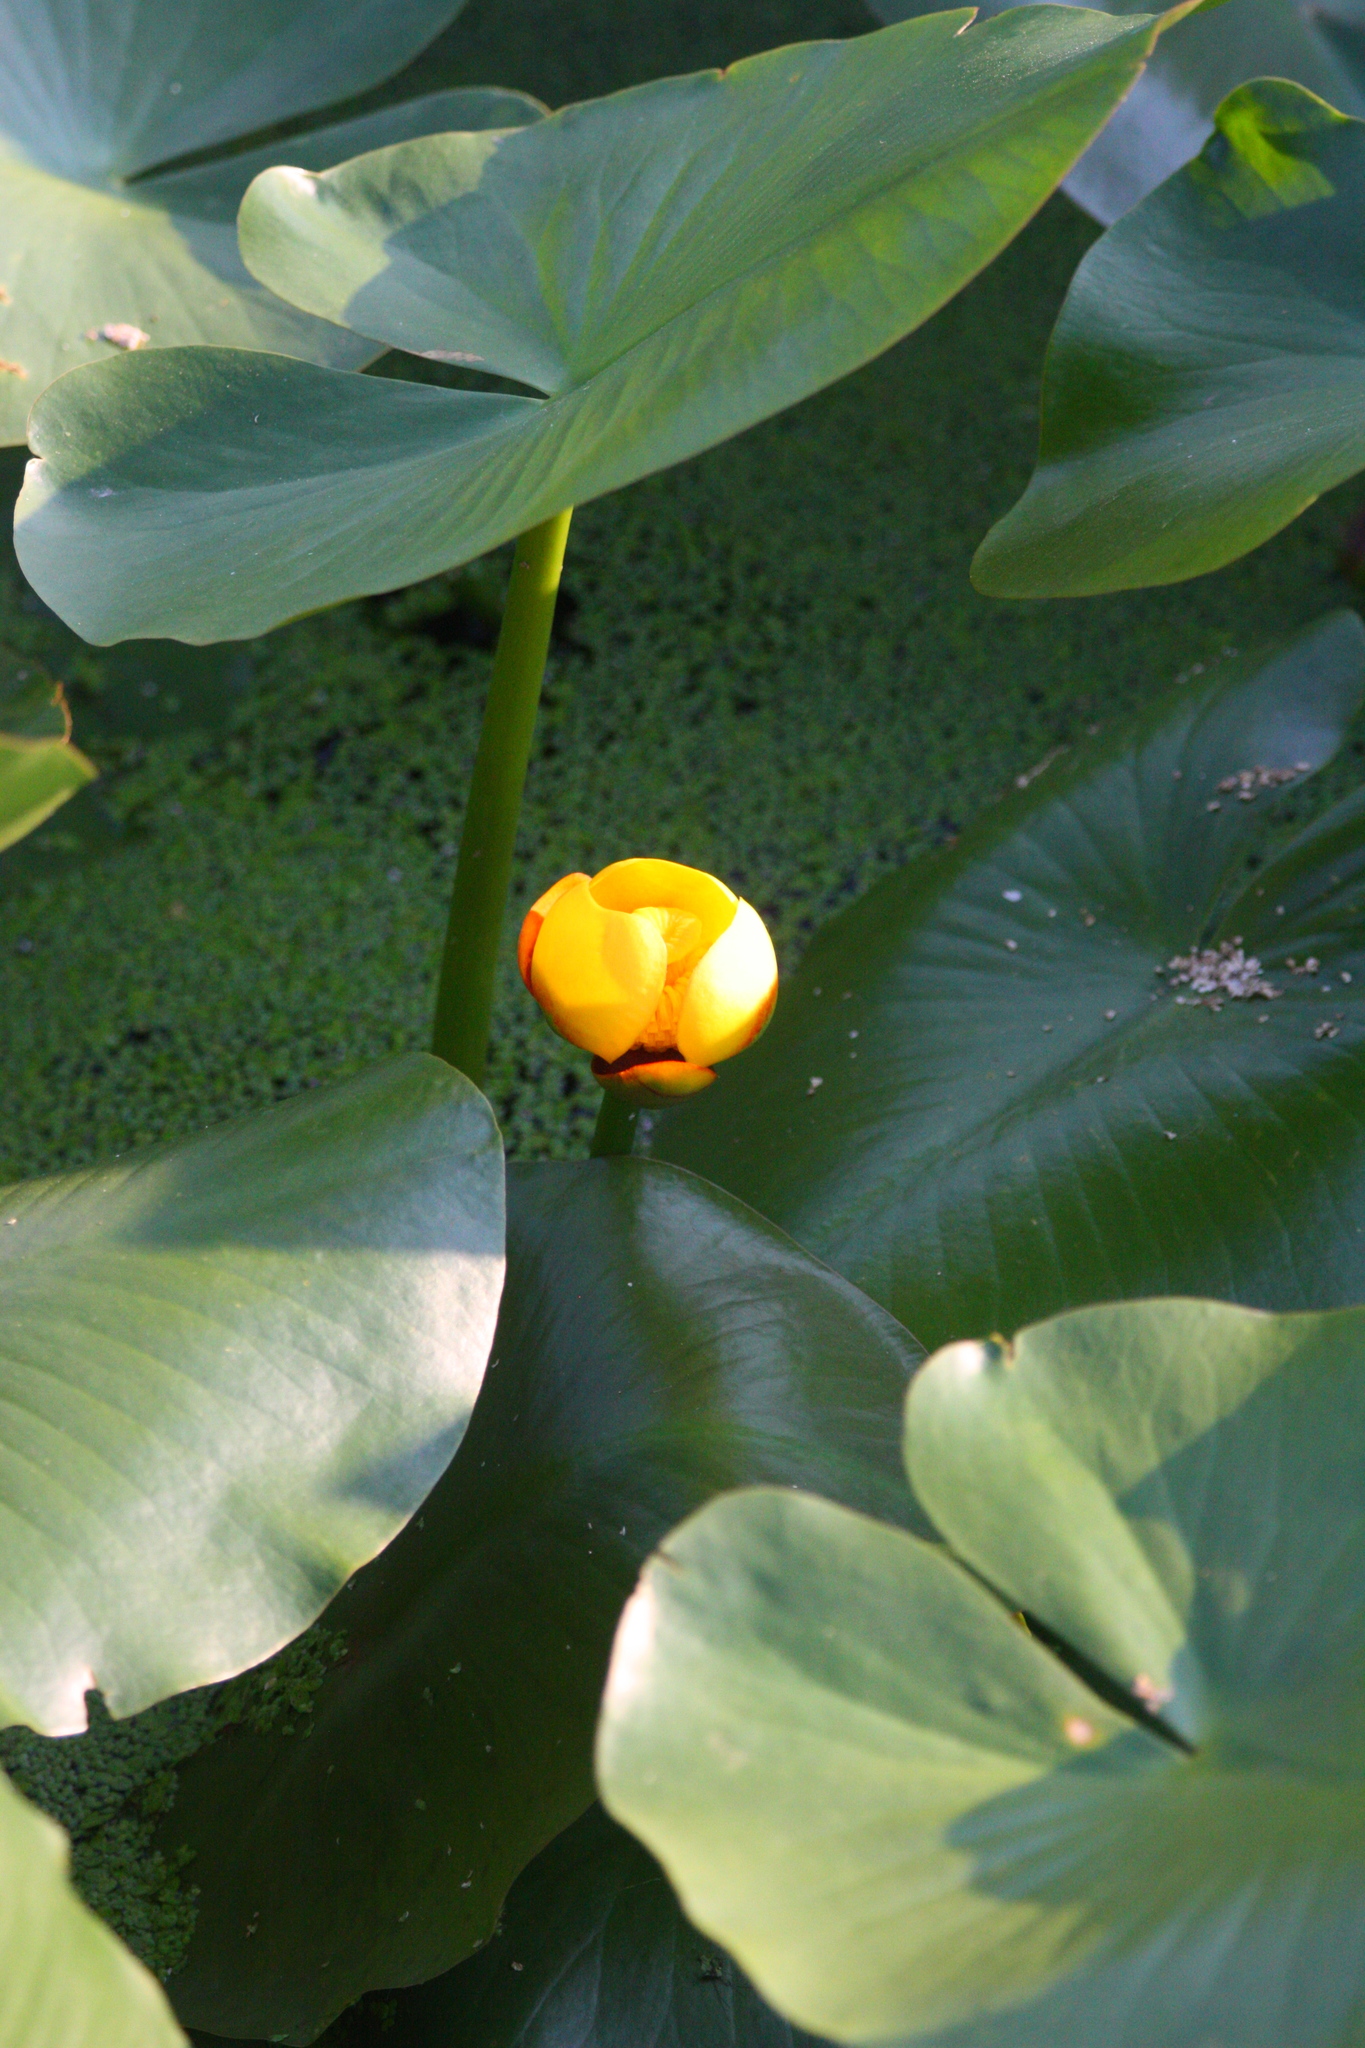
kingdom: Plantae
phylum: Tracheophyta
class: Magnoliopsida
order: Nymphaeales
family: Nymphaeaceae
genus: Nuphar
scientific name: Nuphar variegata
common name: Beaver-root
